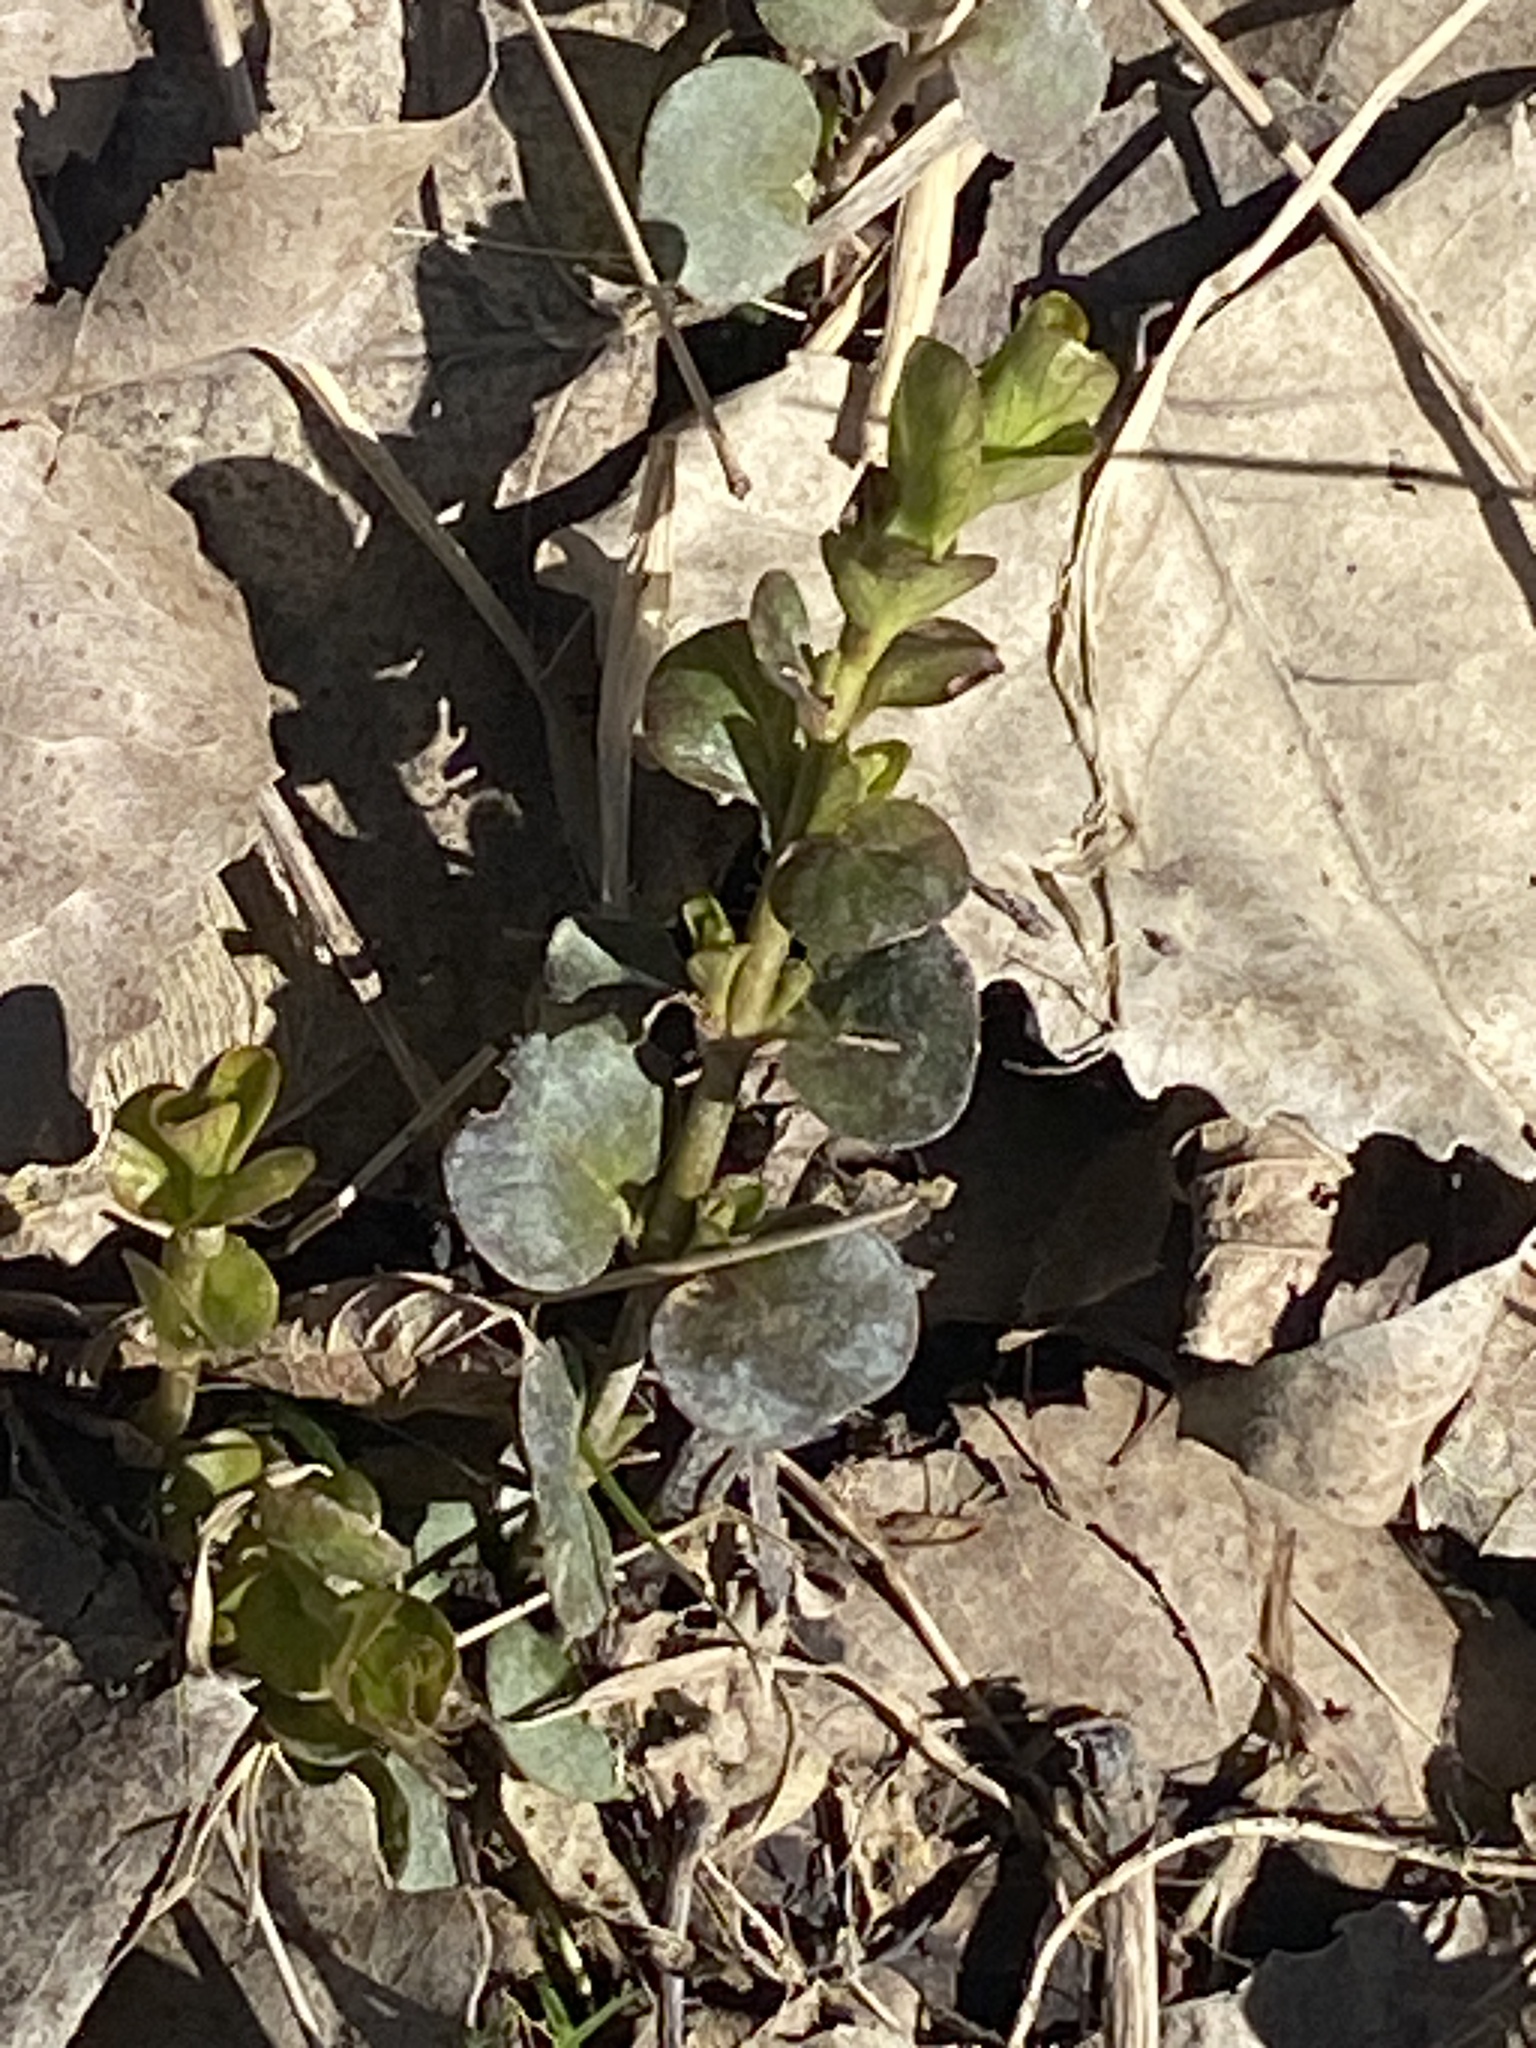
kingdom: Plantae
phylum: Tracheophyta
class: Magnoliopsida
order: Ericales
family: Primulaceae
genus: Lysimachia
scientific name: Lysimachia nummularia
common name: Moneywort
